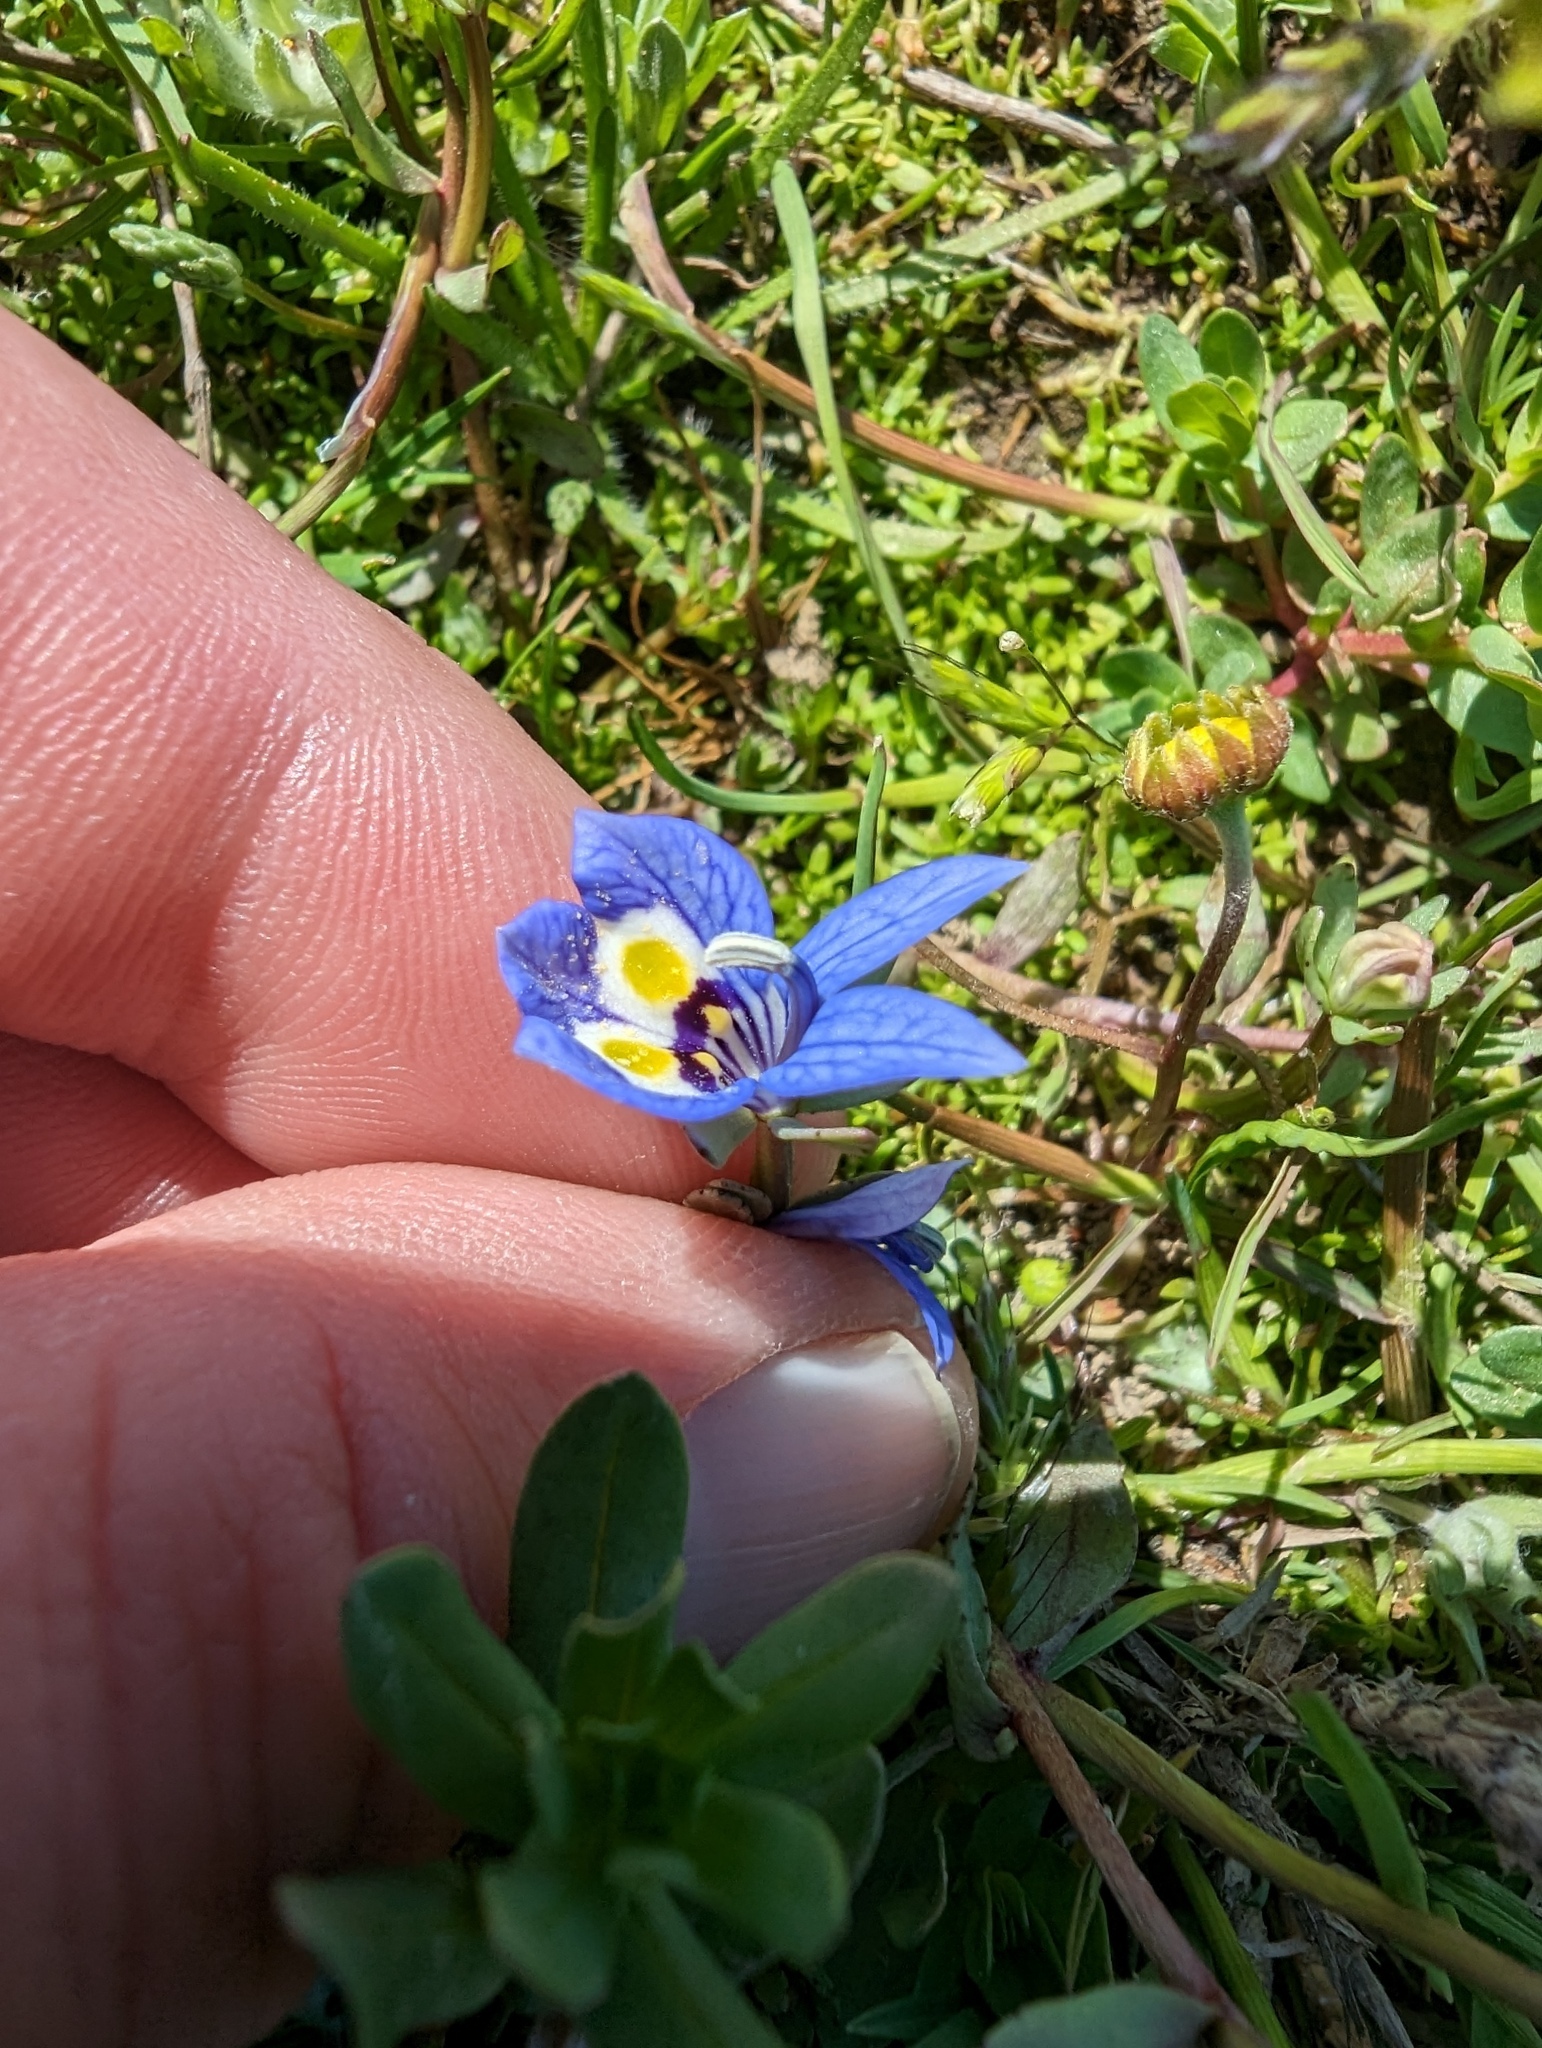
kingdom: Plantae
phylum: Tracheophyta
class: Magnoliopsida
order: Asterales
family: Campanulaceae
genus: Downingia
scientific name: Downingia insignis
